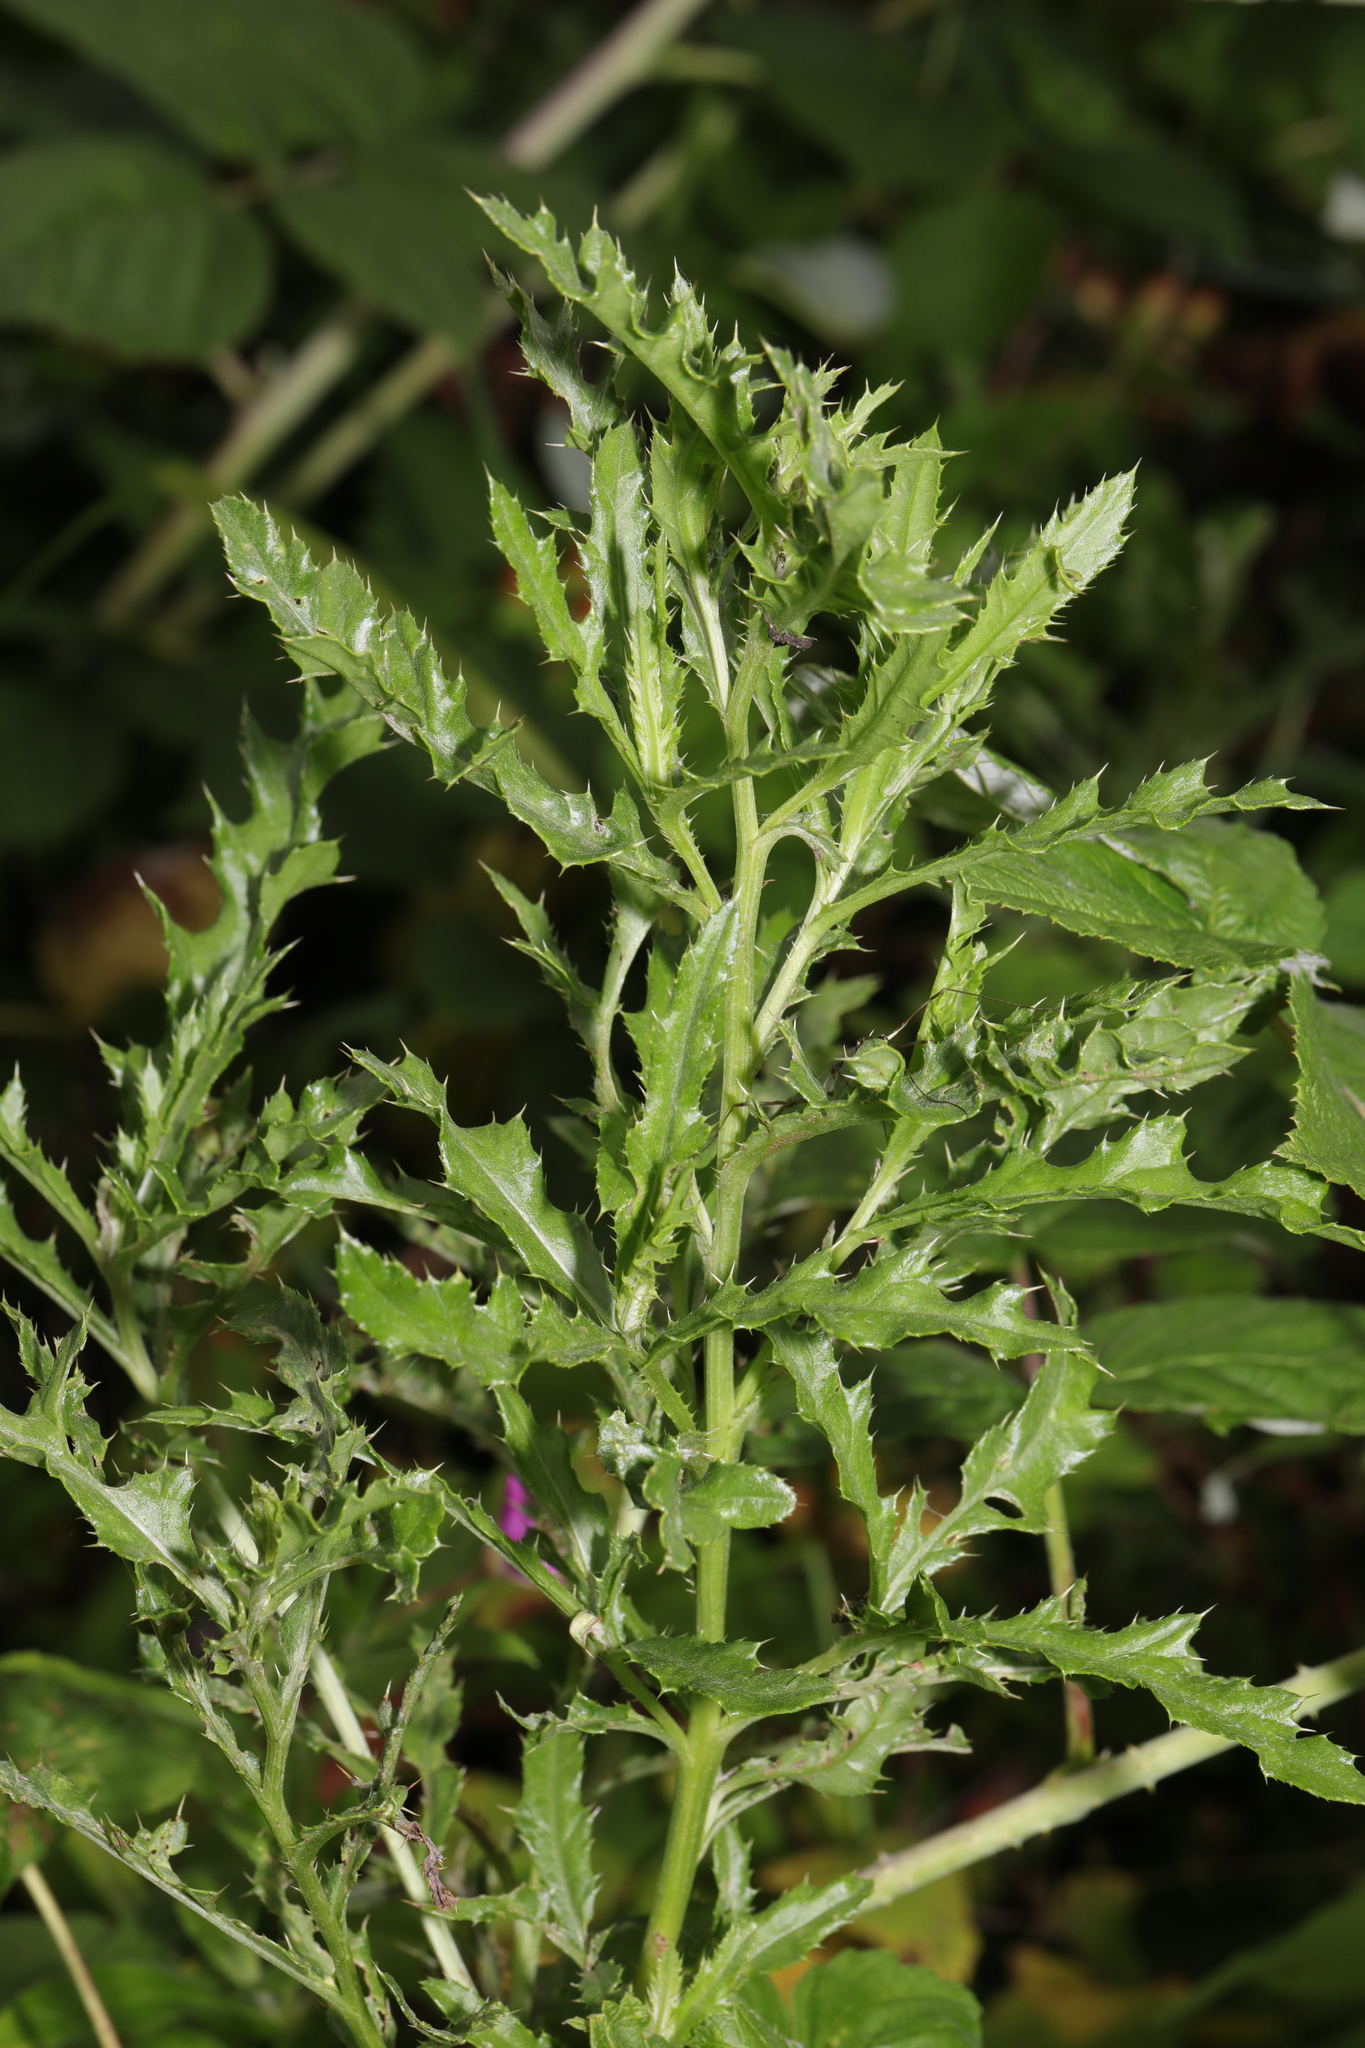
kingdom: Plantae
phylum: Tracheophyta
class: Magnoliopsida
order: Asterales
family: Asteraceae
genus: Cirsium
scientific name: Cirsium arvense
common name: Creeping thistle
